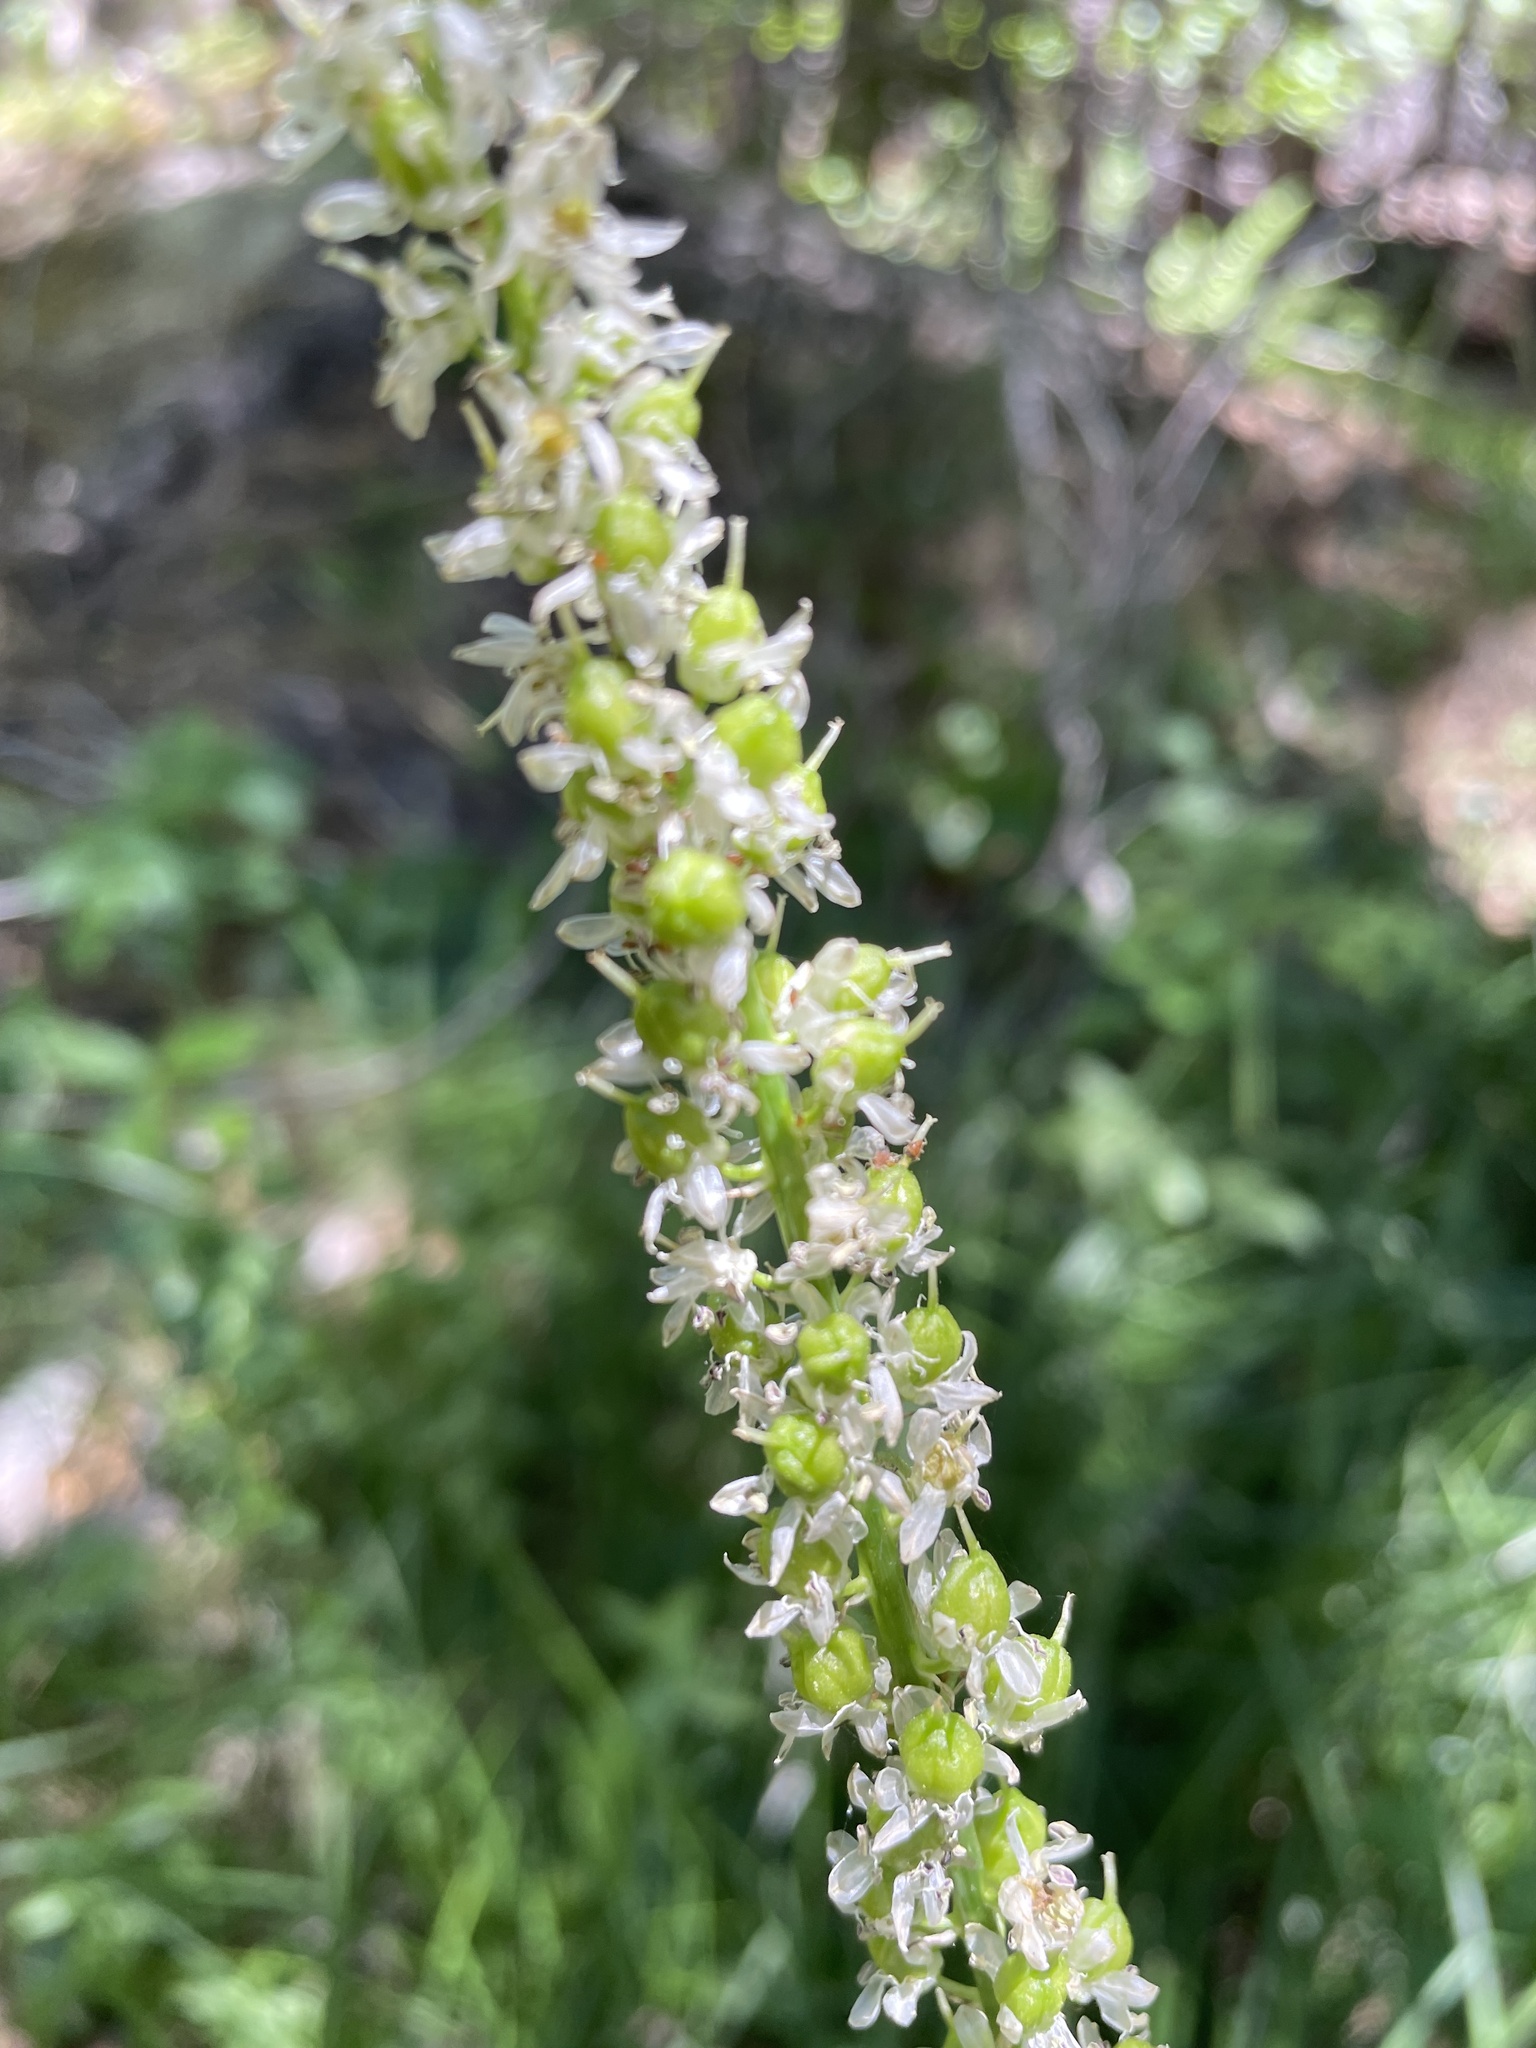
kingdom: Plantae
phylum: Tracheophyta
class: Liliopsida
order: Asparagales
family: Asparagaceae
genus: Hastingsia
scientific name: Hastingsia alba
